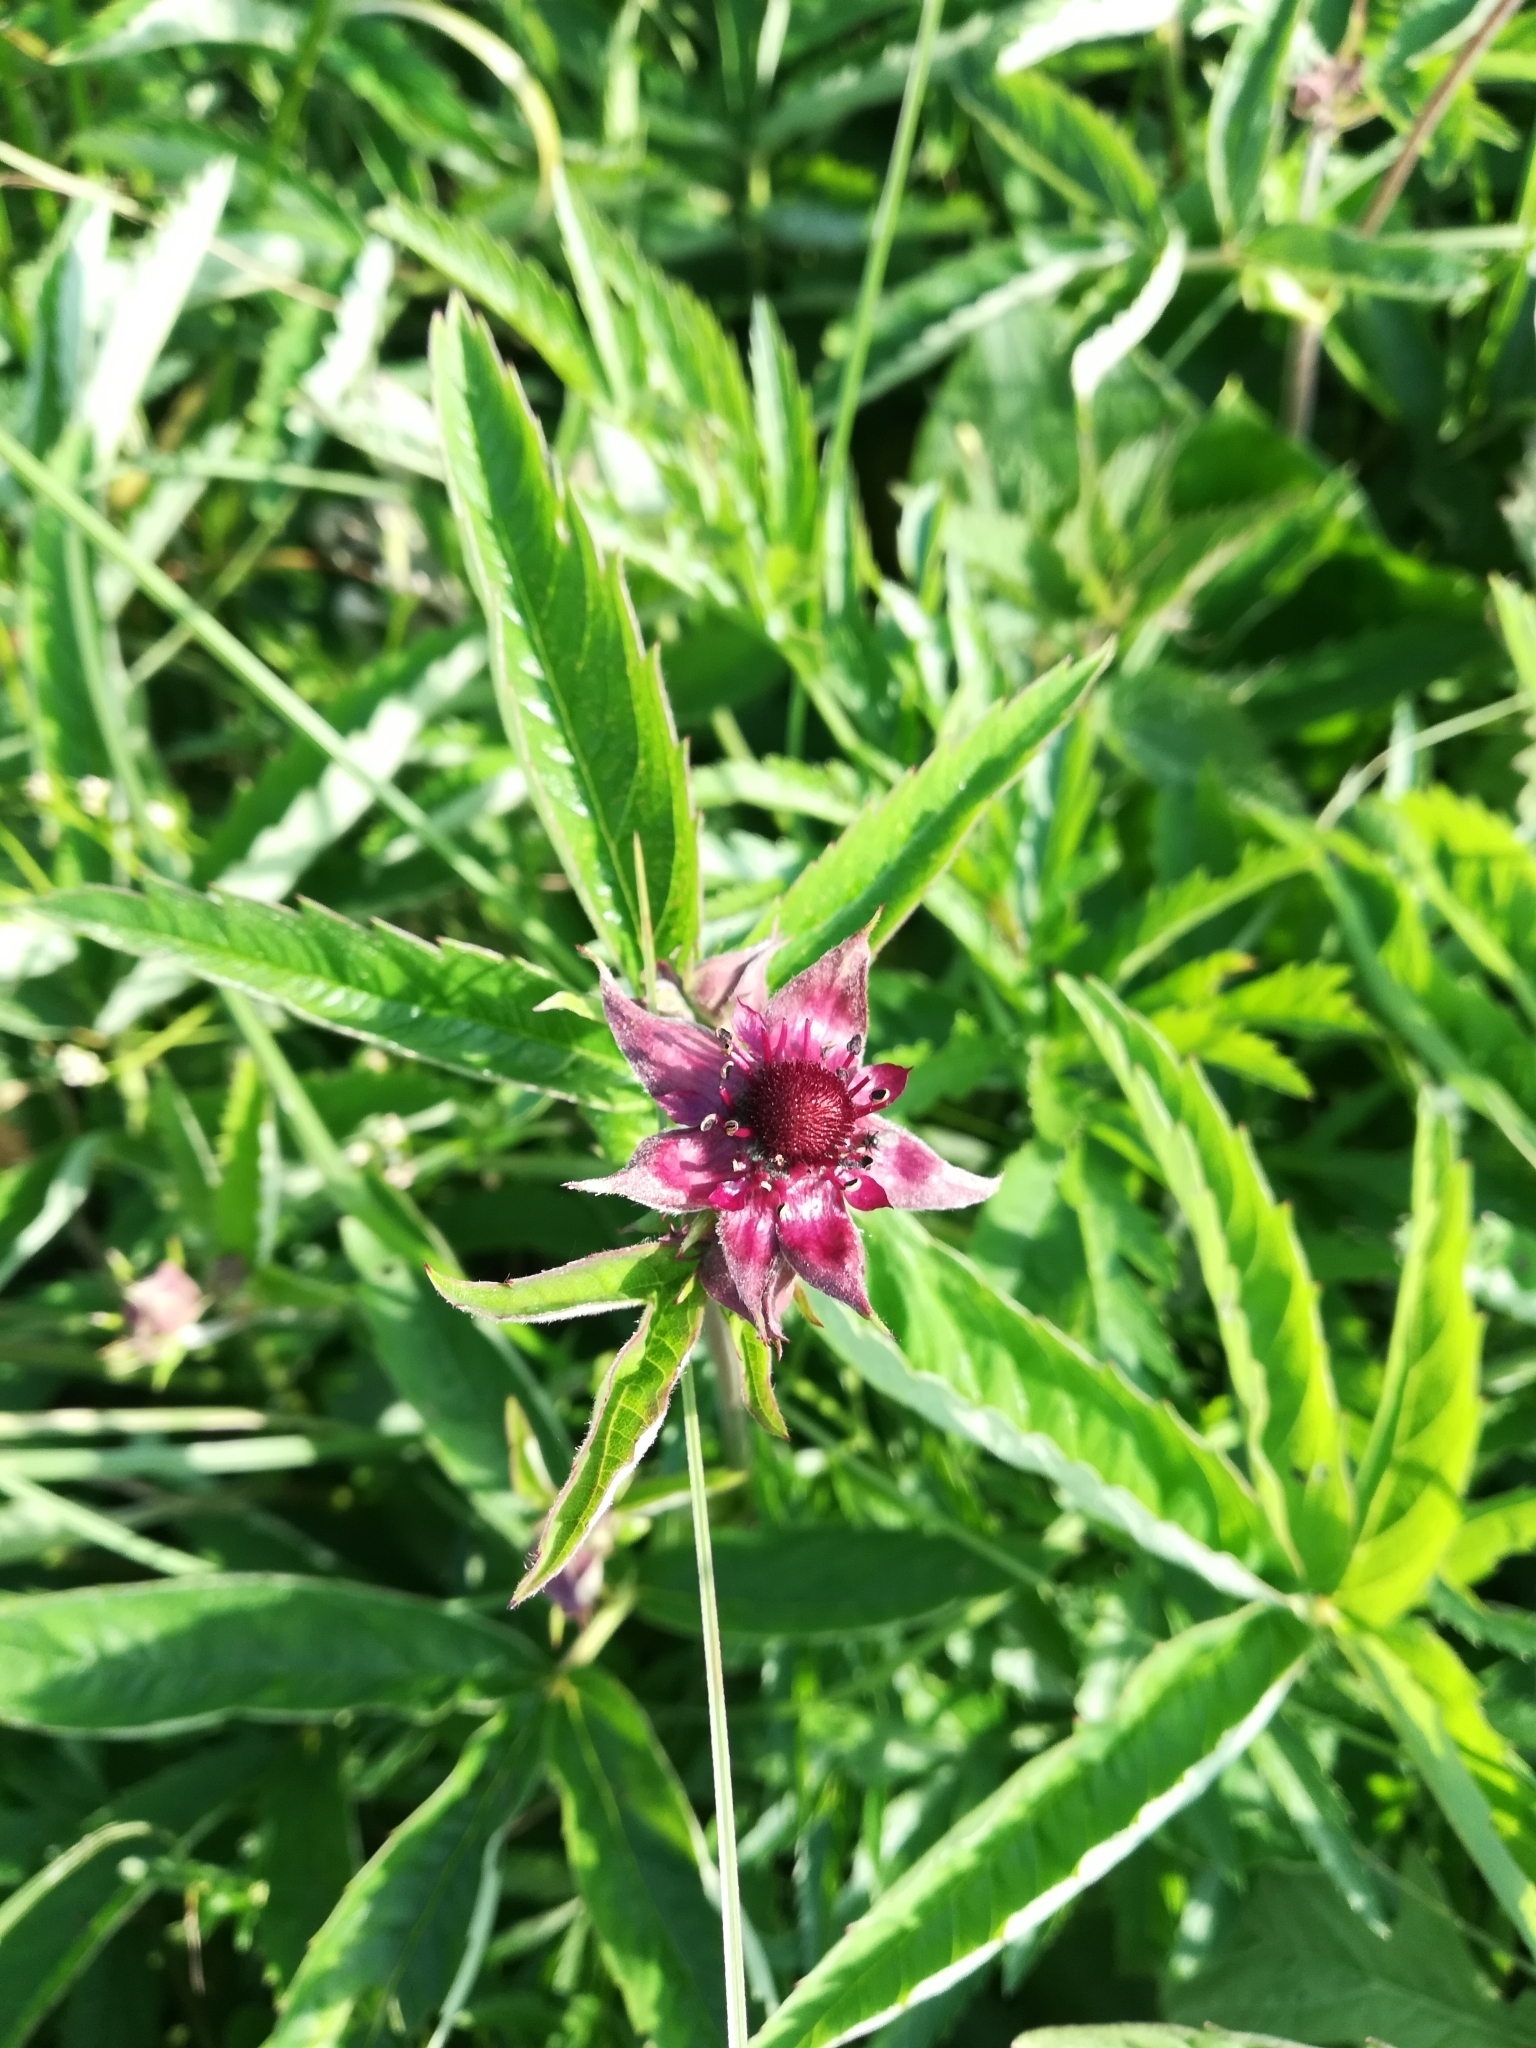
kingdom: Plantae
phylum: Tracheophyta
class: Magnoliopsida
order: Rosales
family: Rosaceae
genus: Comarum
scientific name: Comarum palustre
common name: Marsh cinquefoil
